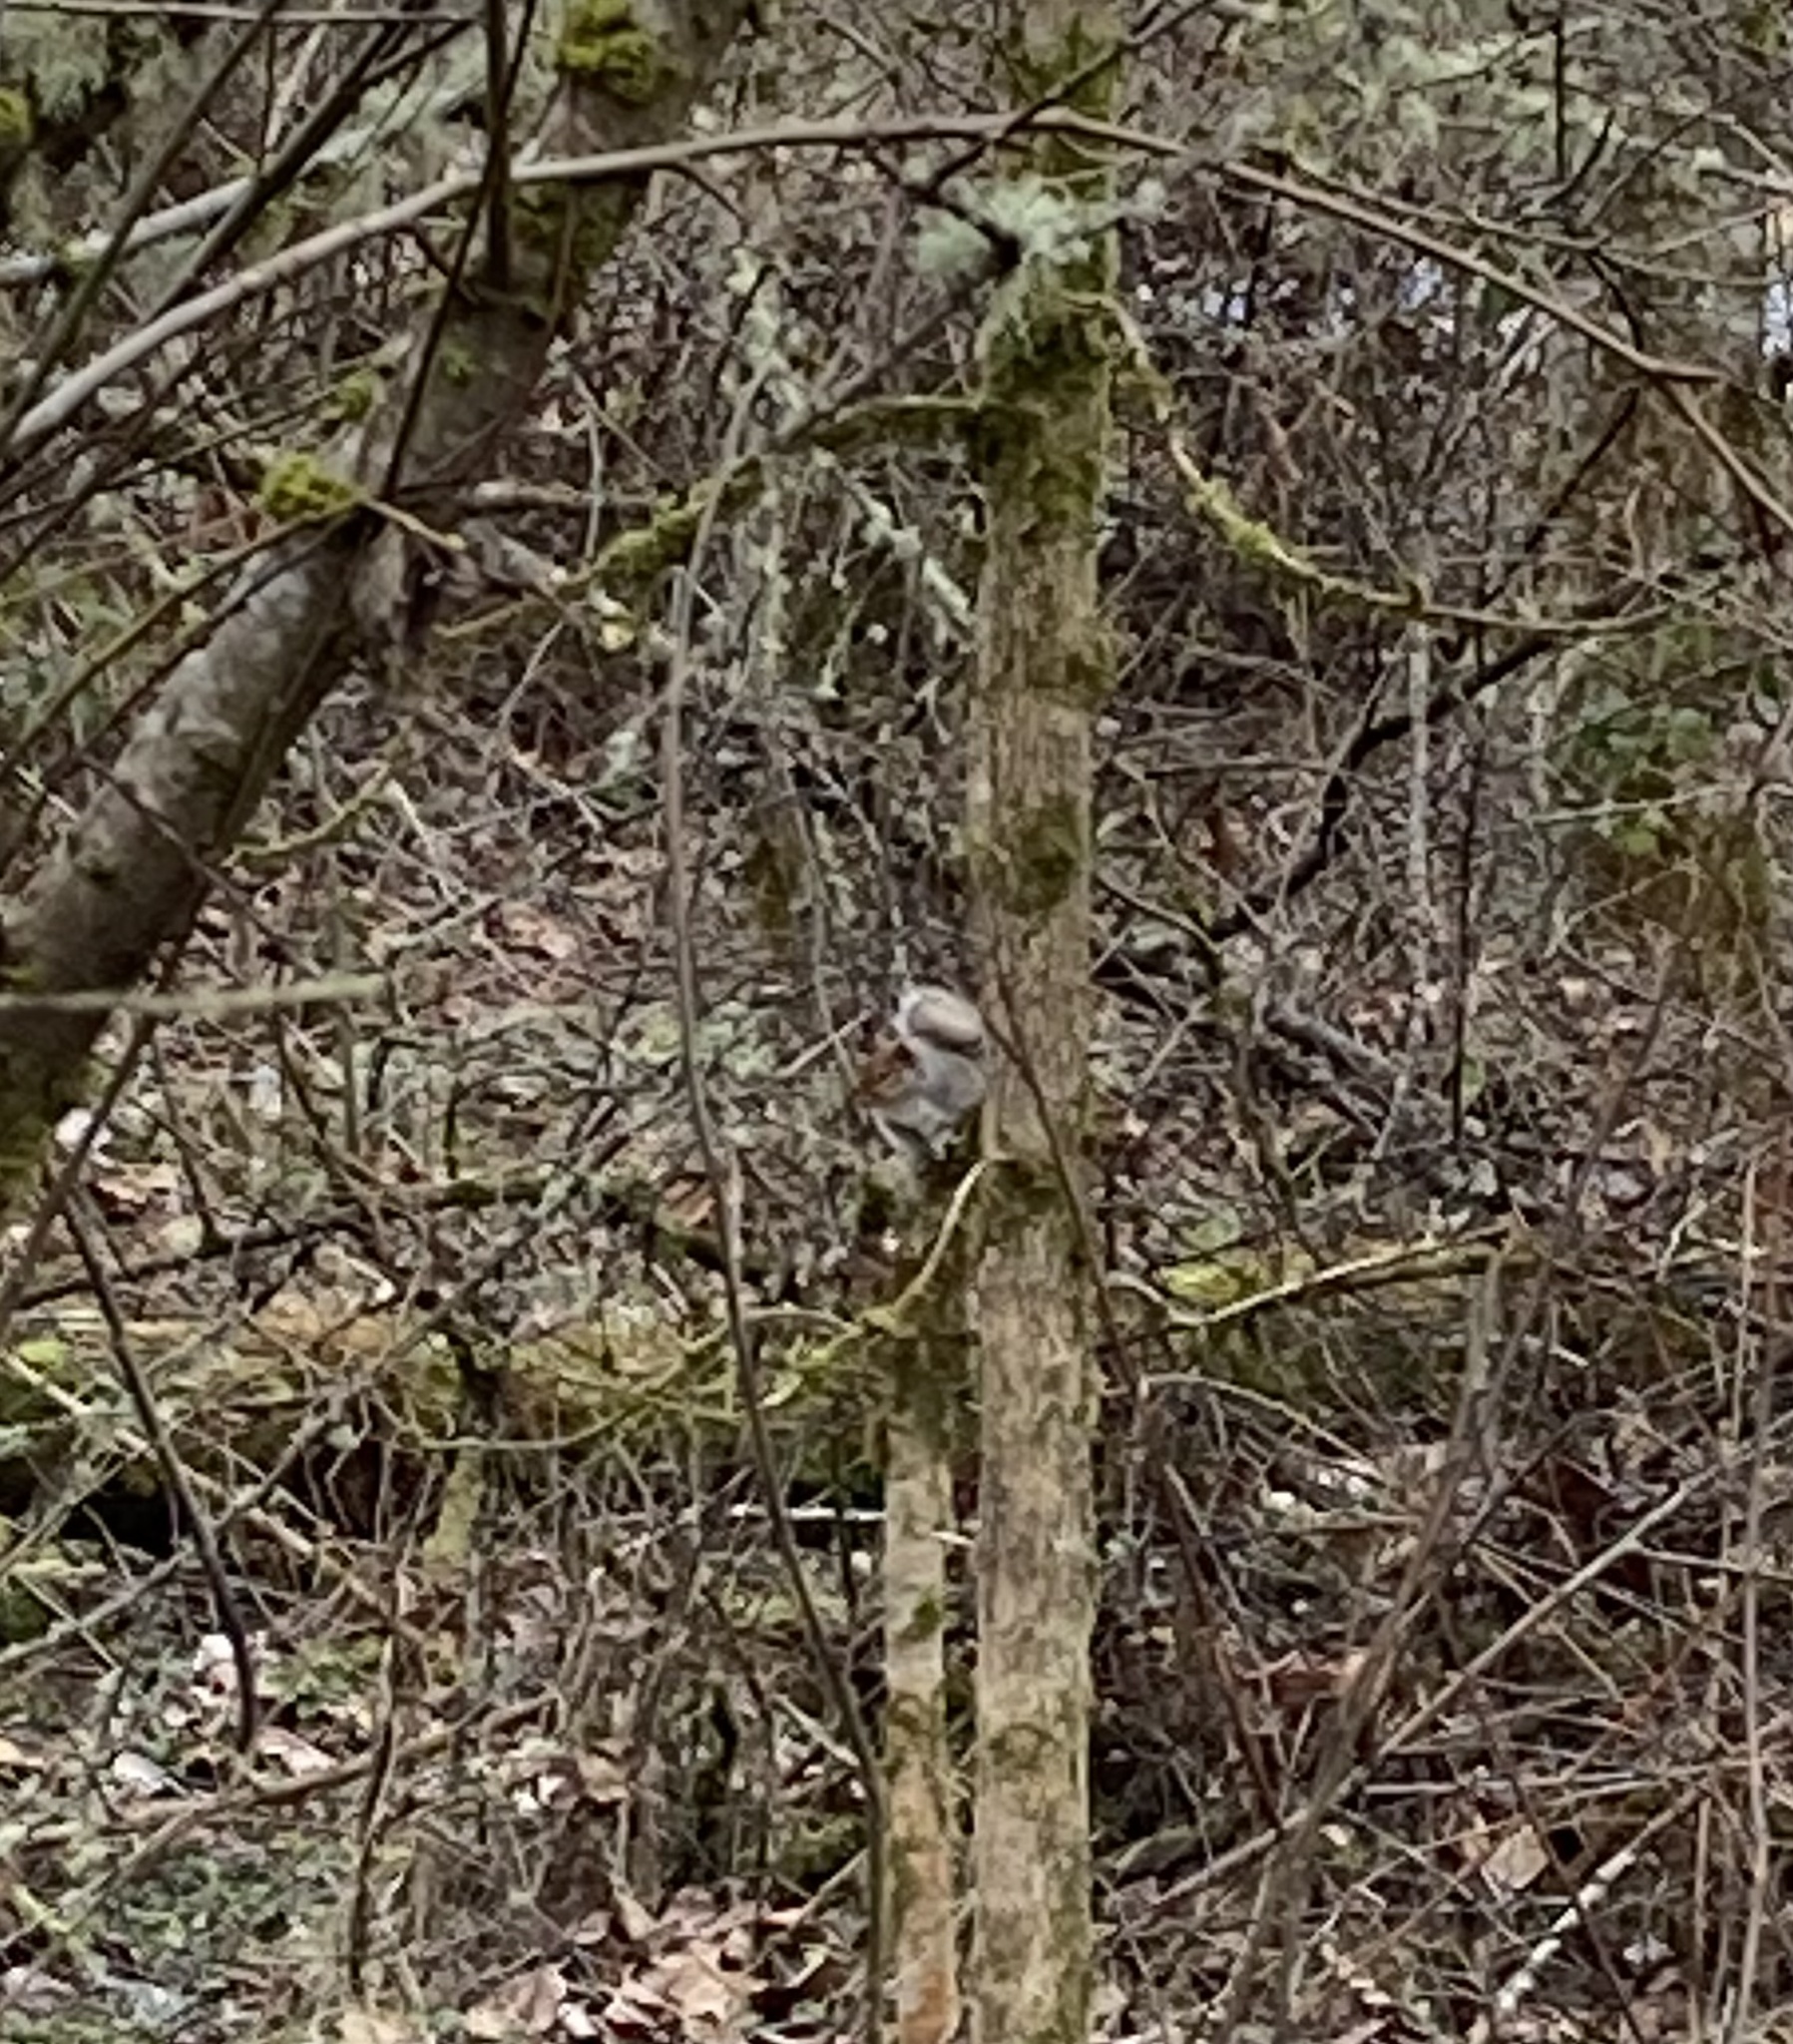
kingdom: Animalia
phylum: Chordata
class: Mammalia
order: Rodentia
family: Sciuridae
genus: Sciurus
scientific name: Sciurus carolinensis
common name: Eastern gray squirrel
